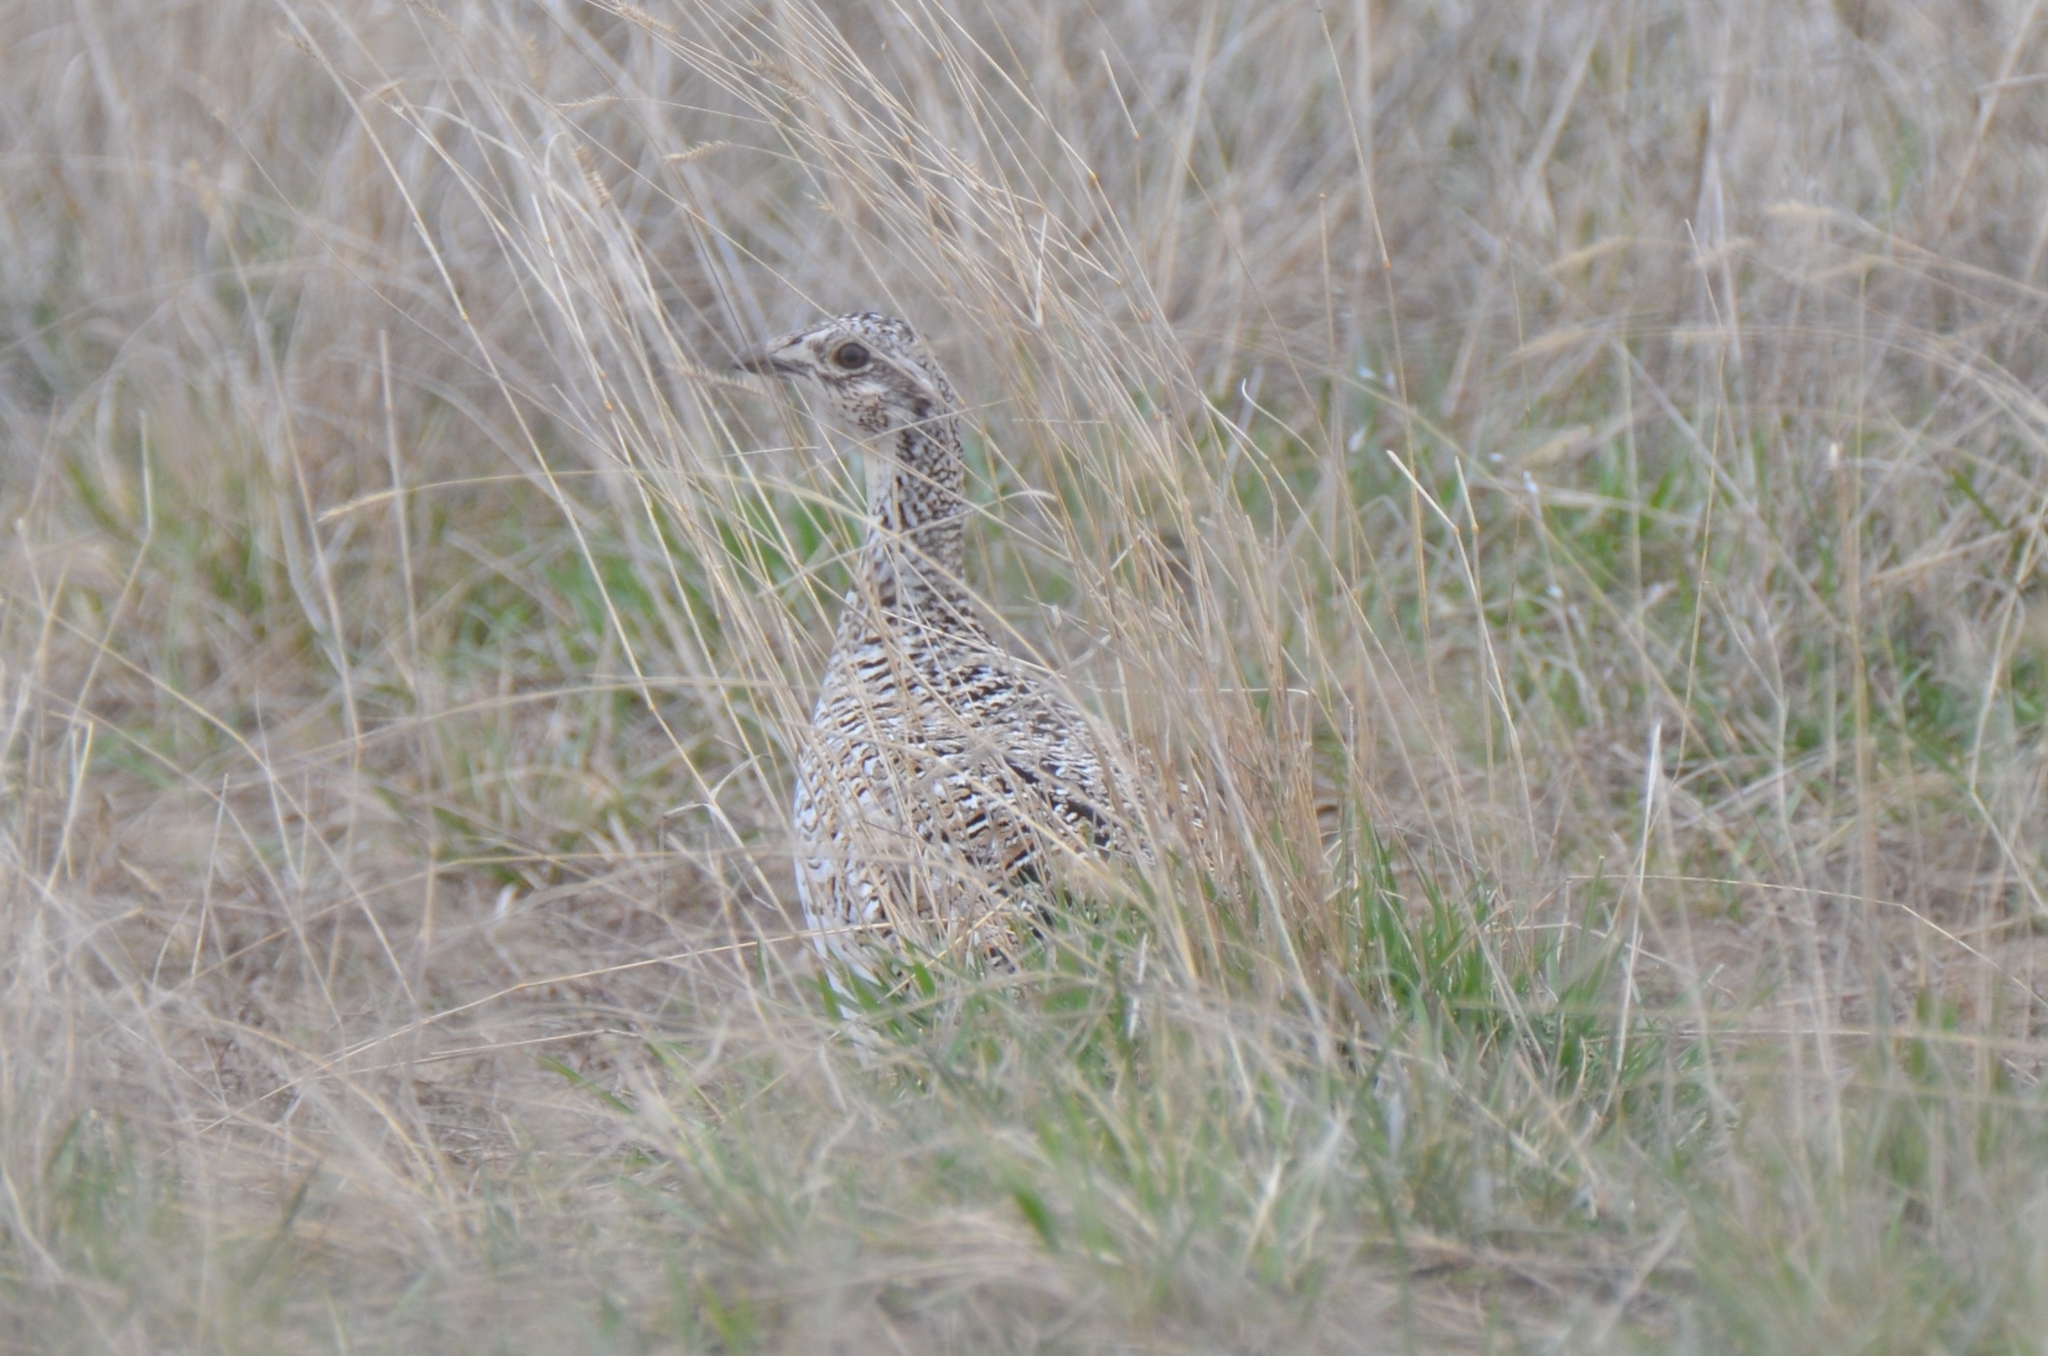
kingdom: Animalia
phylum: Chordata
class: Aves
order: Galliformes
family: Phasianidae
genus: Tympanuchus
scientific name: Tympanuchus phasianellus
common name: Sharp-tailed grouse
